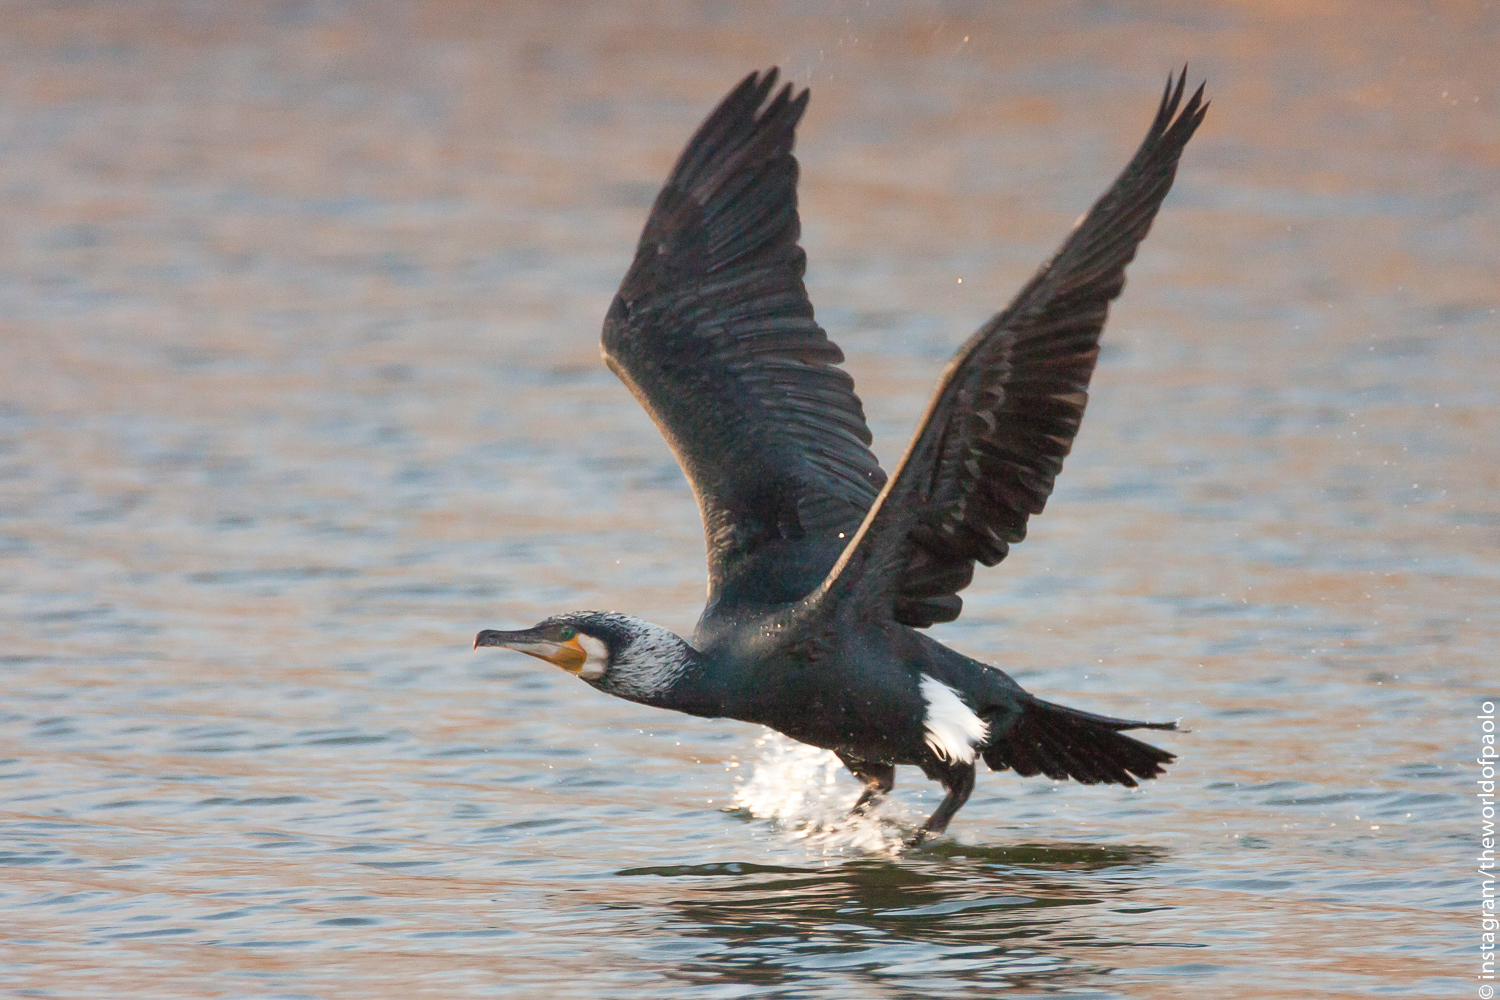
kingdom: Animalia
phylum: Chordata
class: Aves
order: Suliformes
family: Phalacrocoracidae
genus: Phalacrocorax
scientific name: Phalacrocorax carbo
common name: Great cormorant
